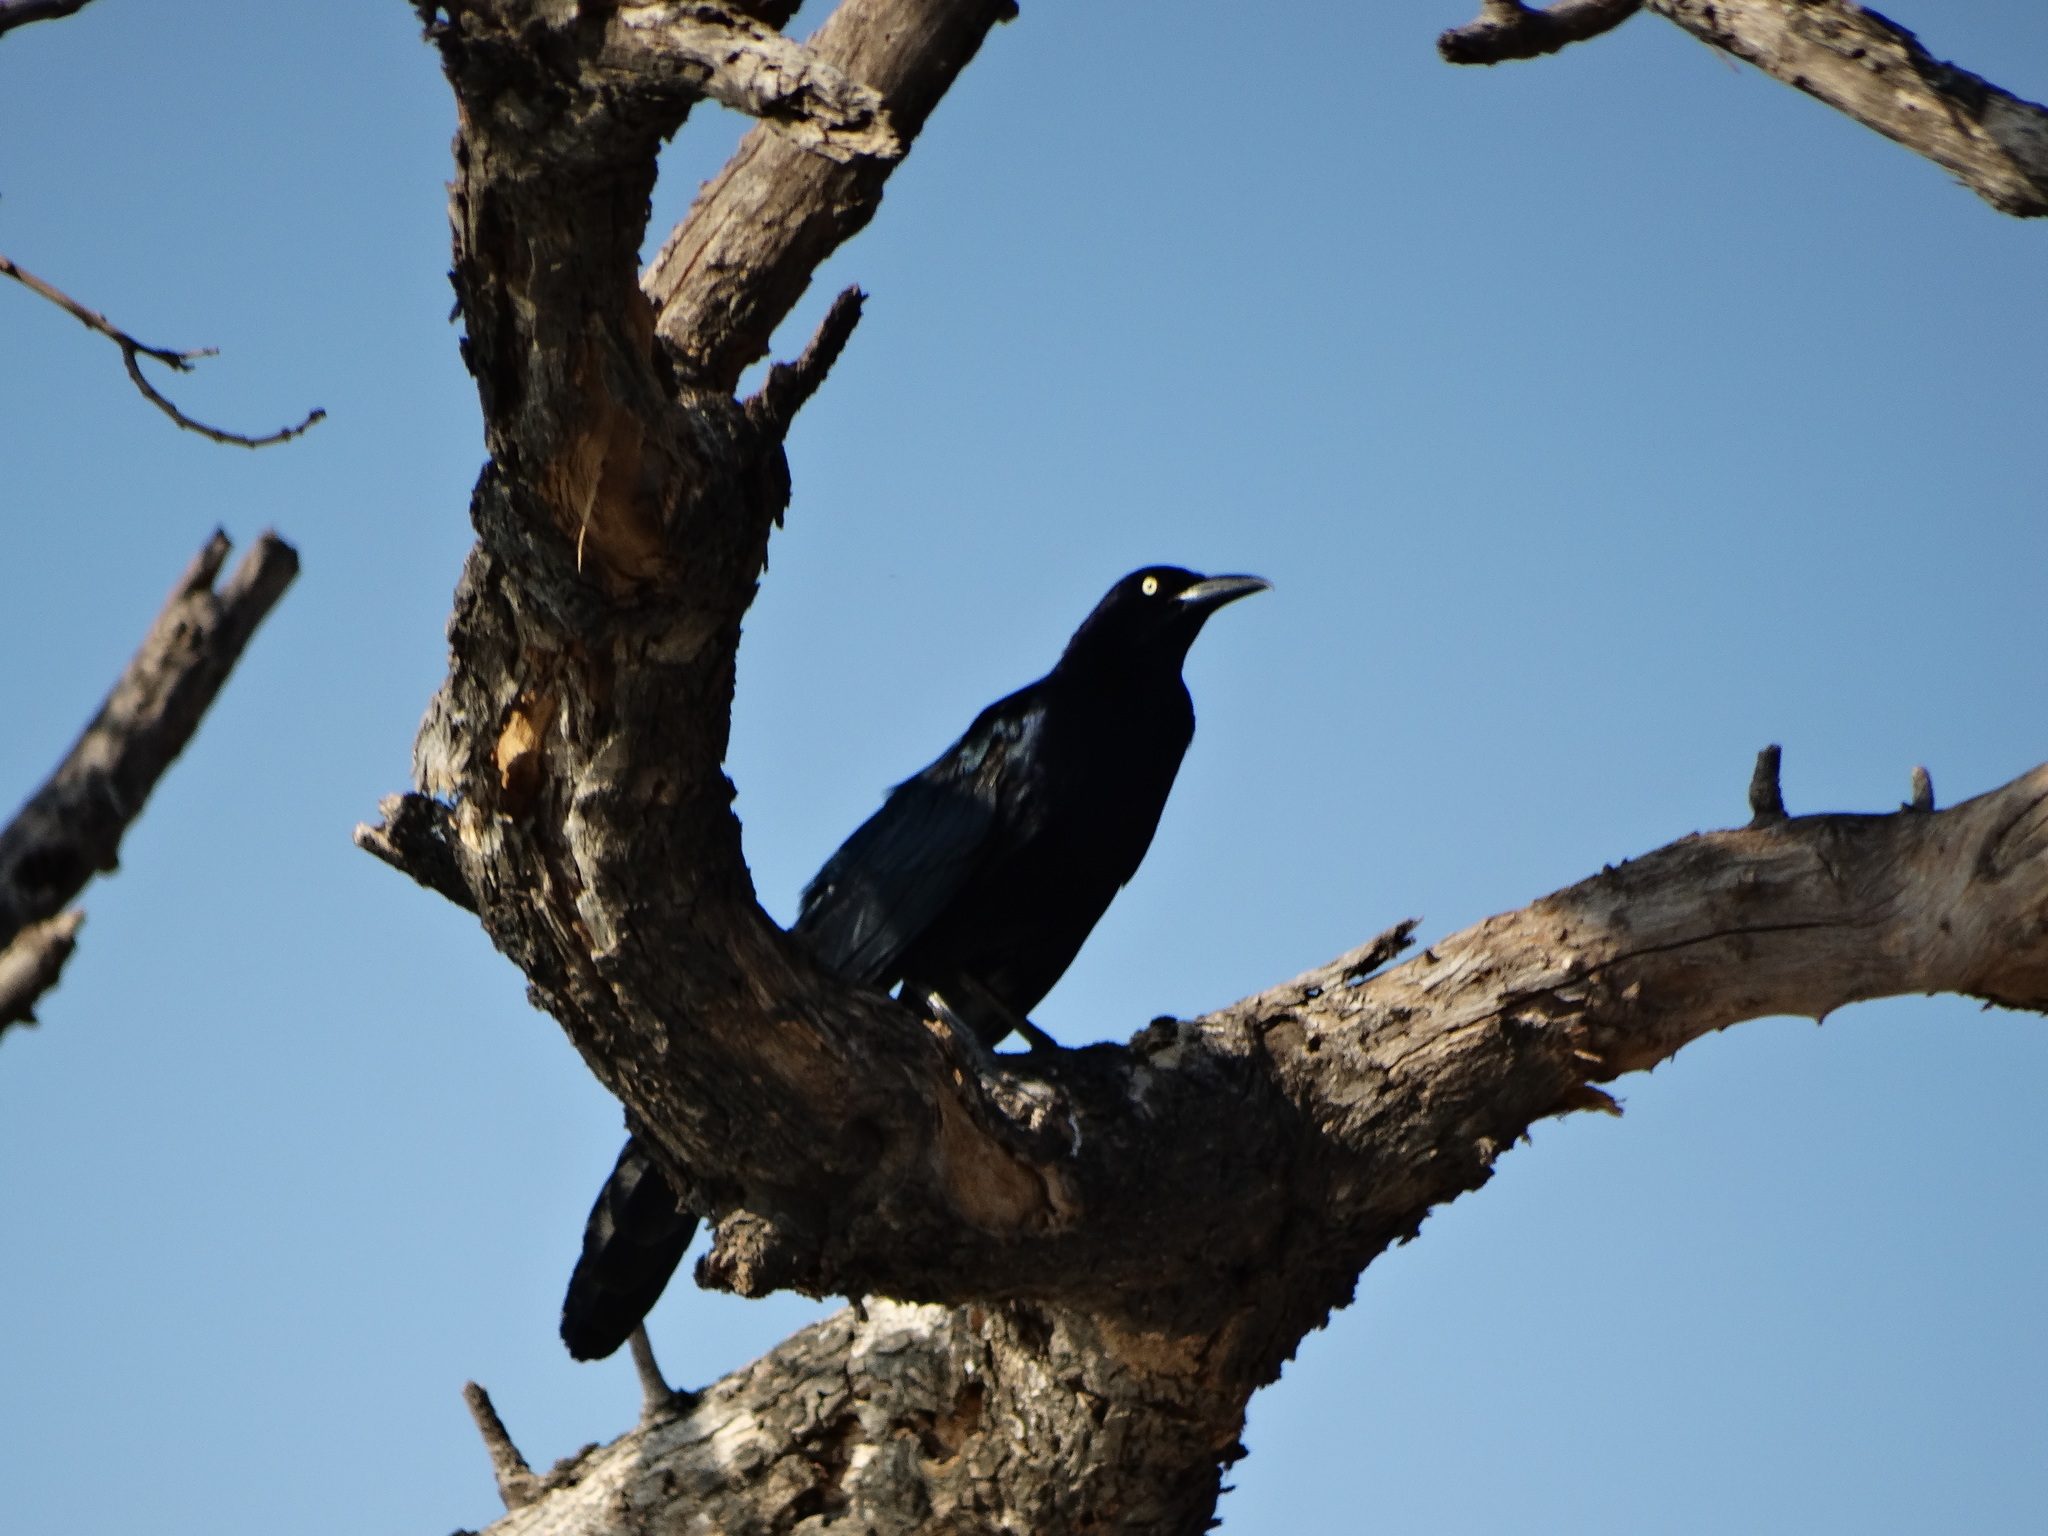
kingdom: Animalia
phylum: Chordata
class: Aves
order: Passeriformes
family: Icteridae
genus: Quiscalus
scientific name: Quiscalus mexicanus
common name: Great-tailed grackle
